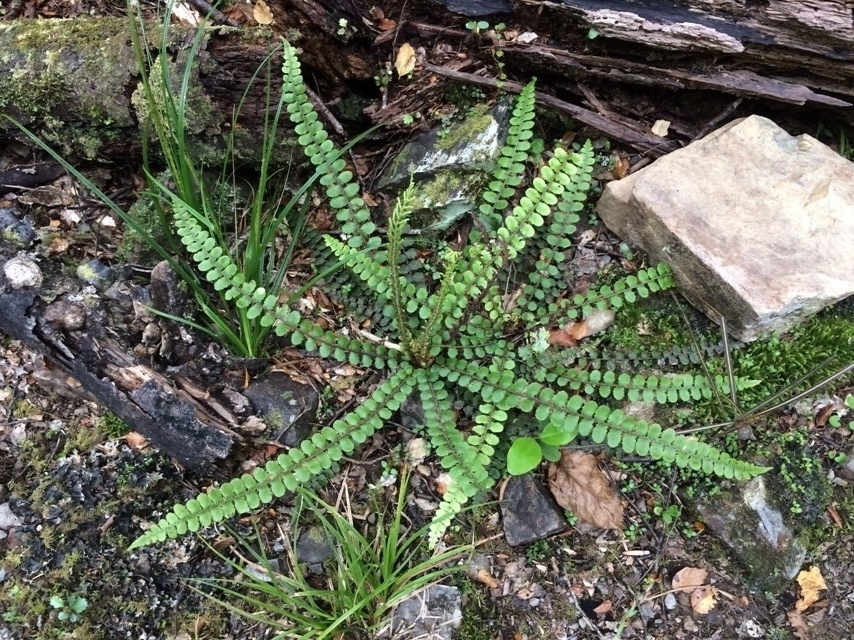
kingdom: Plantae
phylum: Tracheophyta
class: Polypodiopsida
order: Polypodiales
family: Blechnaceae
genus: Cranfillia
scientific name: Cranfillia fluviatilis
